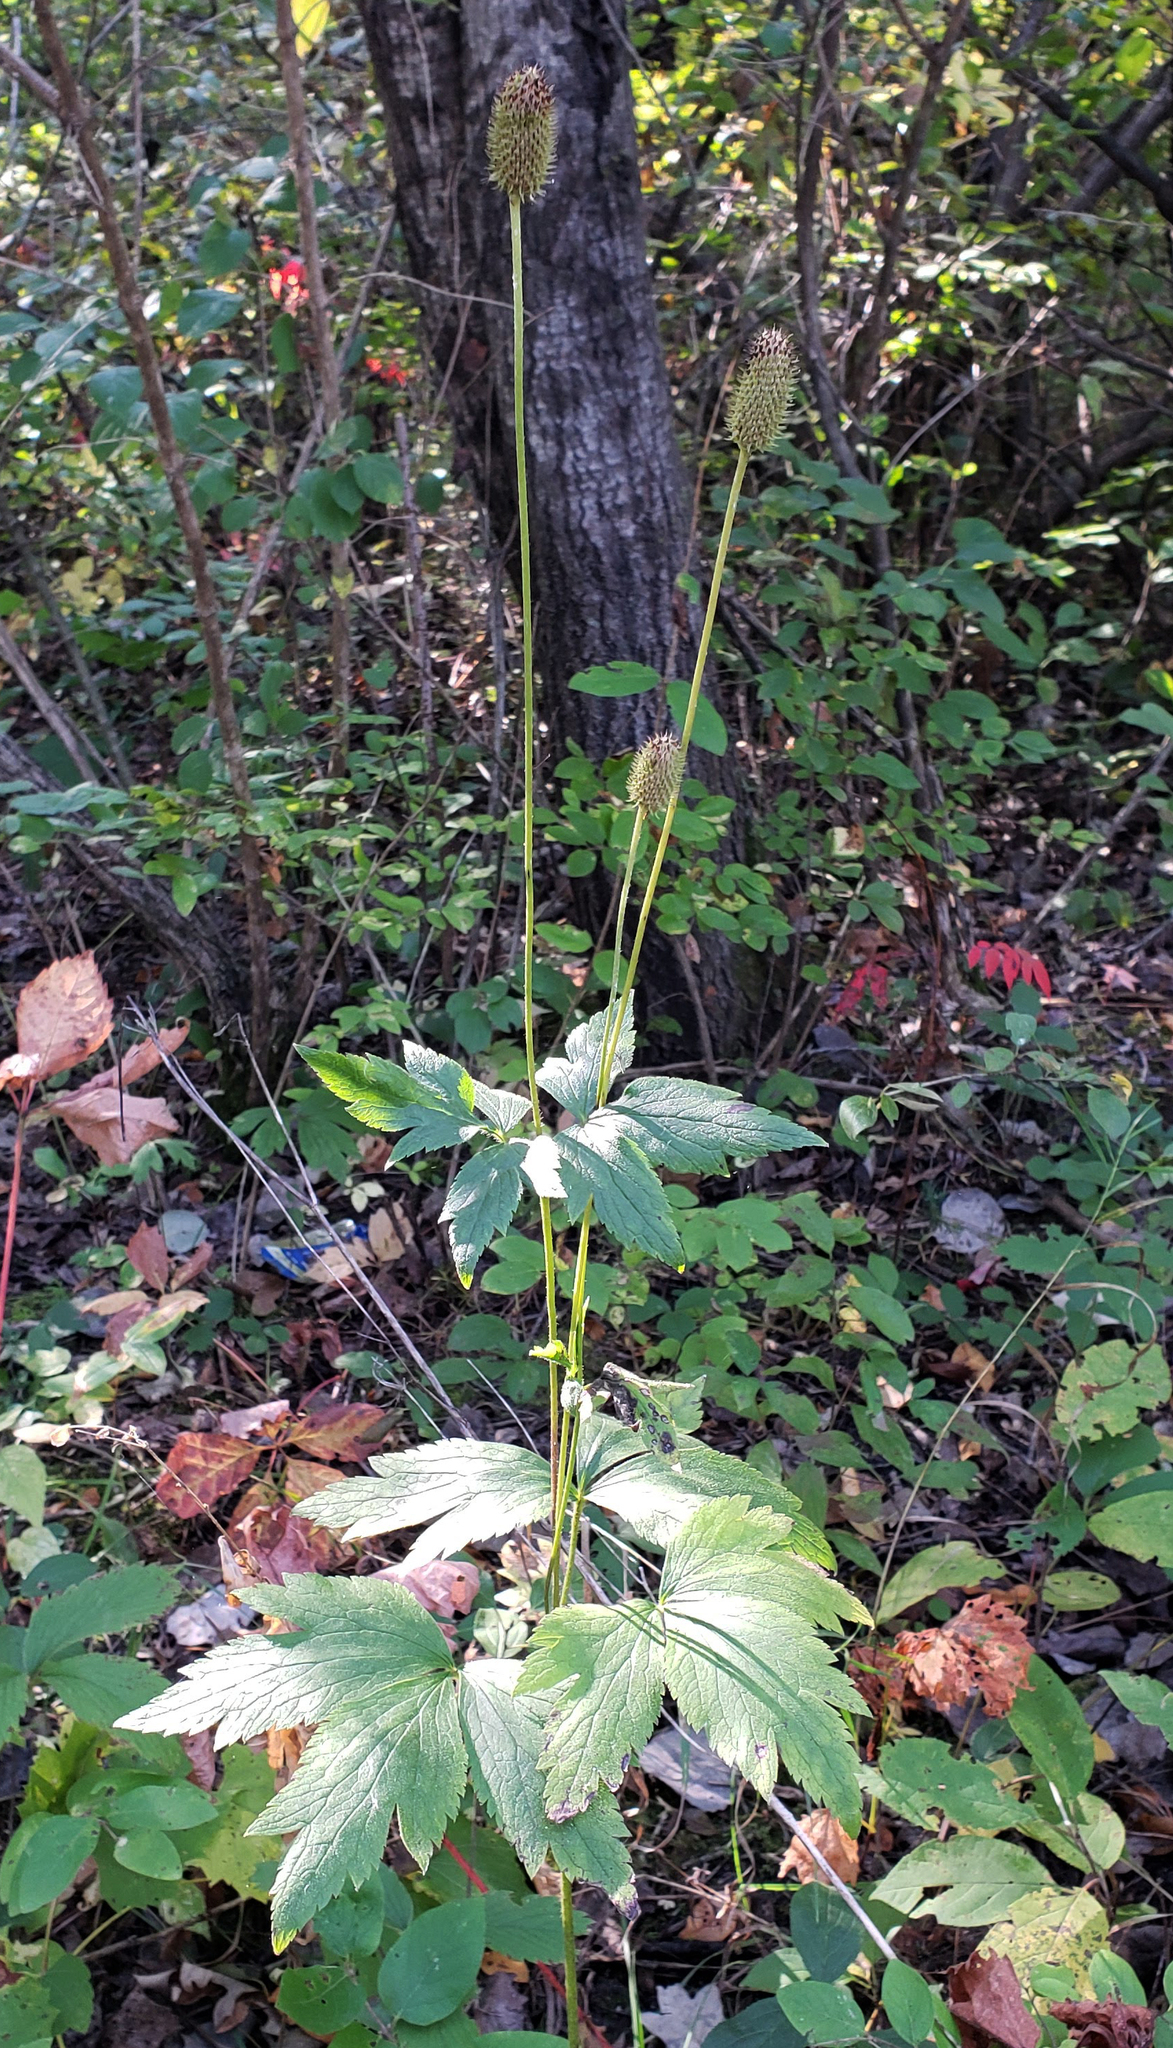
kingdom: Plantae
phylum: Tracheophyta
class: Magnoliopsida
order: Ranunculales
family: Ranunculaceae
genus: Anemone
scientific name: Anemone virginiana
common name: Tall anemone
